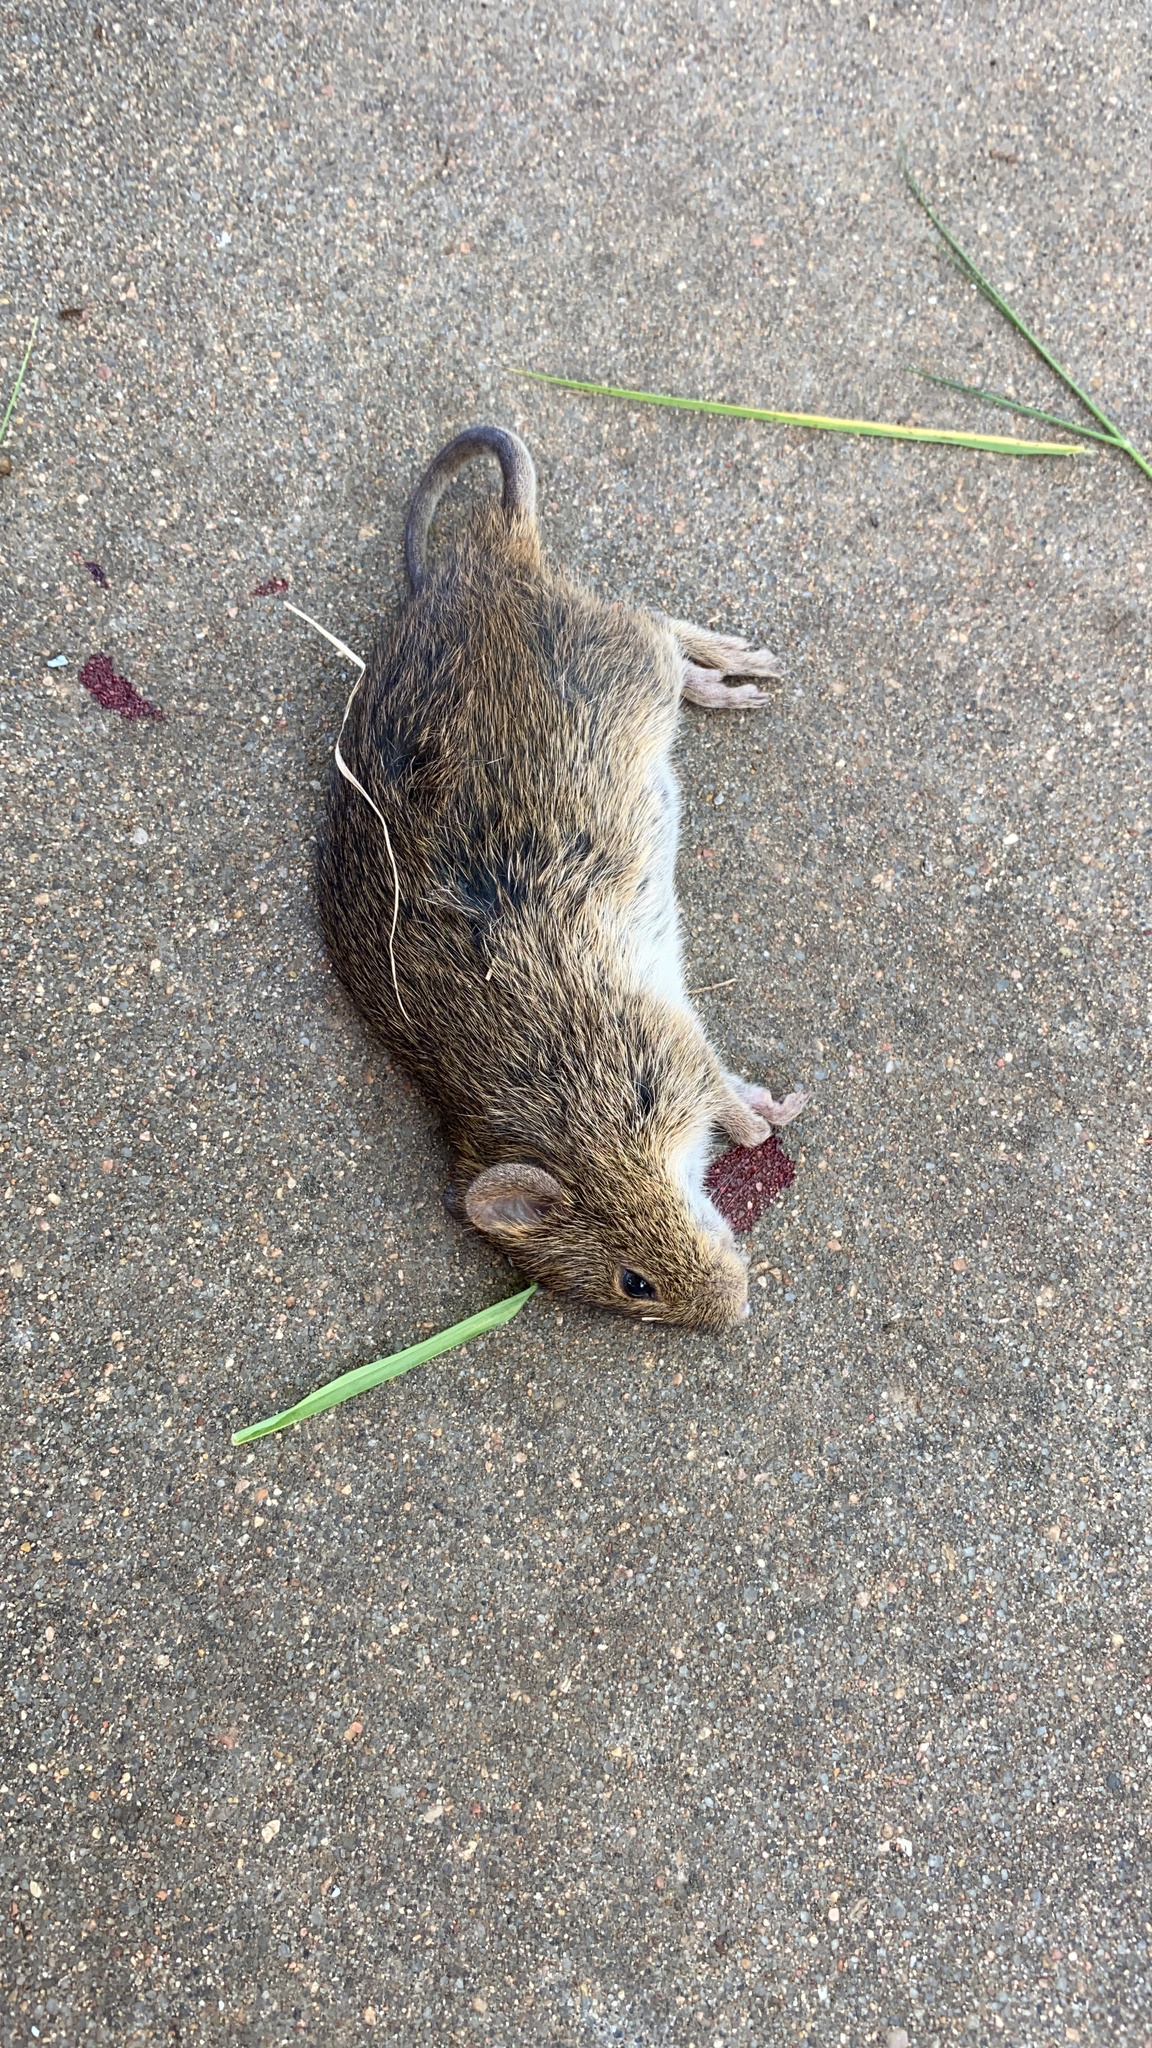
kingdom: Animalia
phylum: Chordata
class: Mammalia
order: Rodentia
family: Cricetidae
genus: Sigmodon
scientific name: Sigmodon hispidus
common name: Hispid cotton rat
